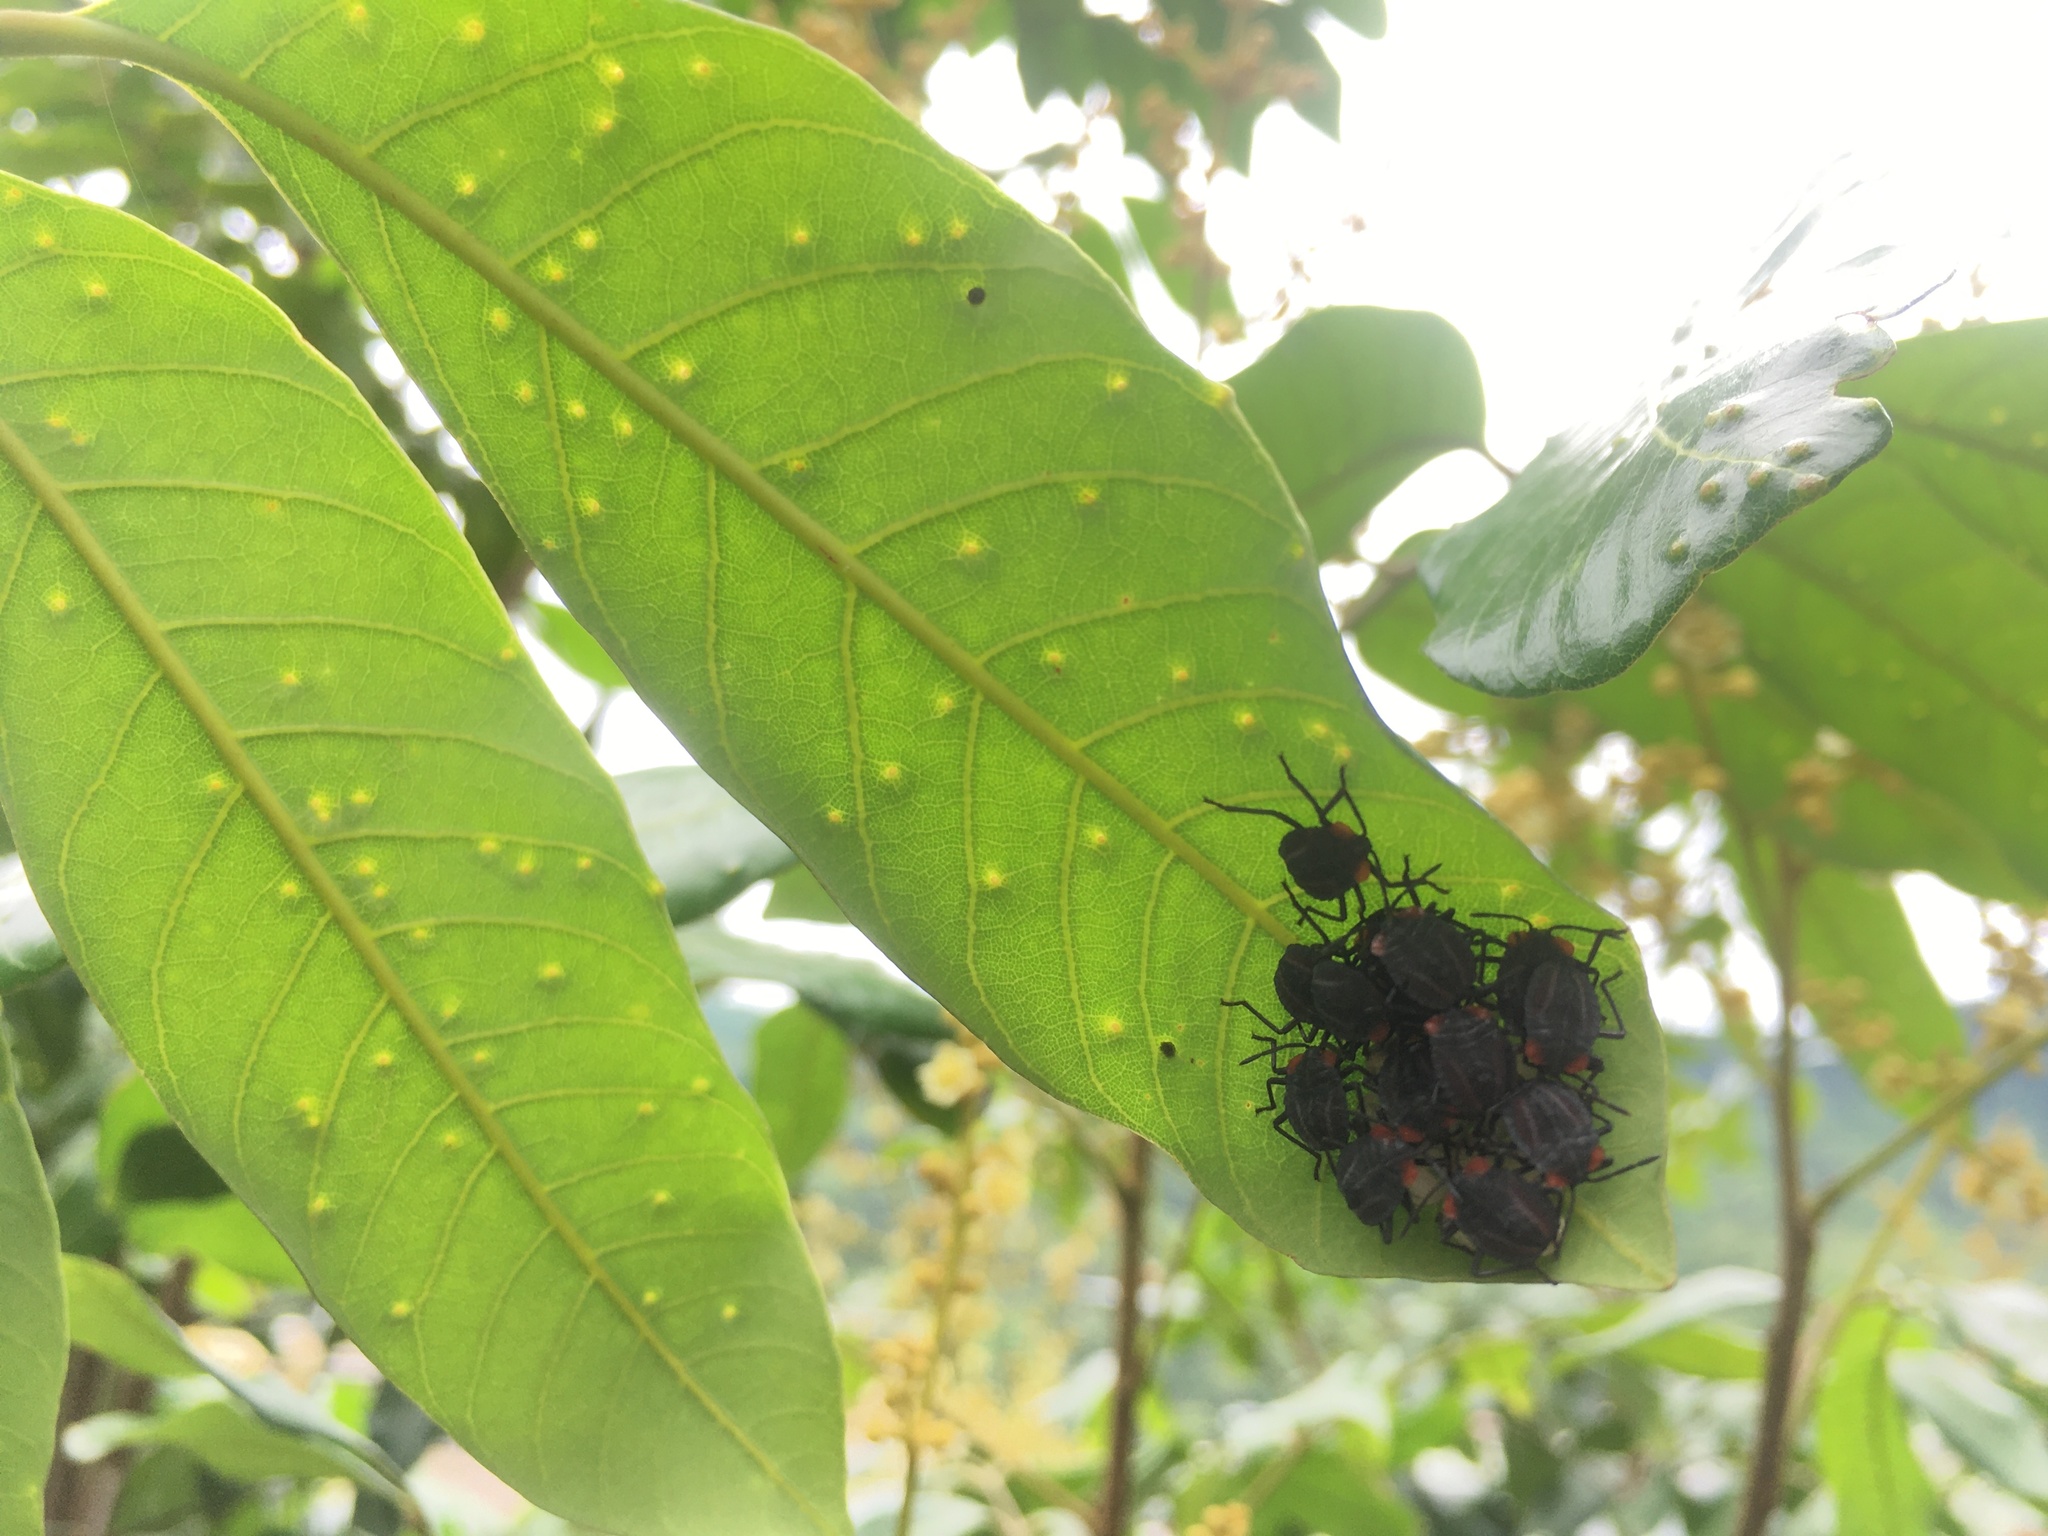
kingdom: Animalia
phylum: Arthropoda
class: Insecta
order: Hemiptera
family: Tessaratomidae
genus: Tessaratoma
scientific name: Tessaratoma papillosa
